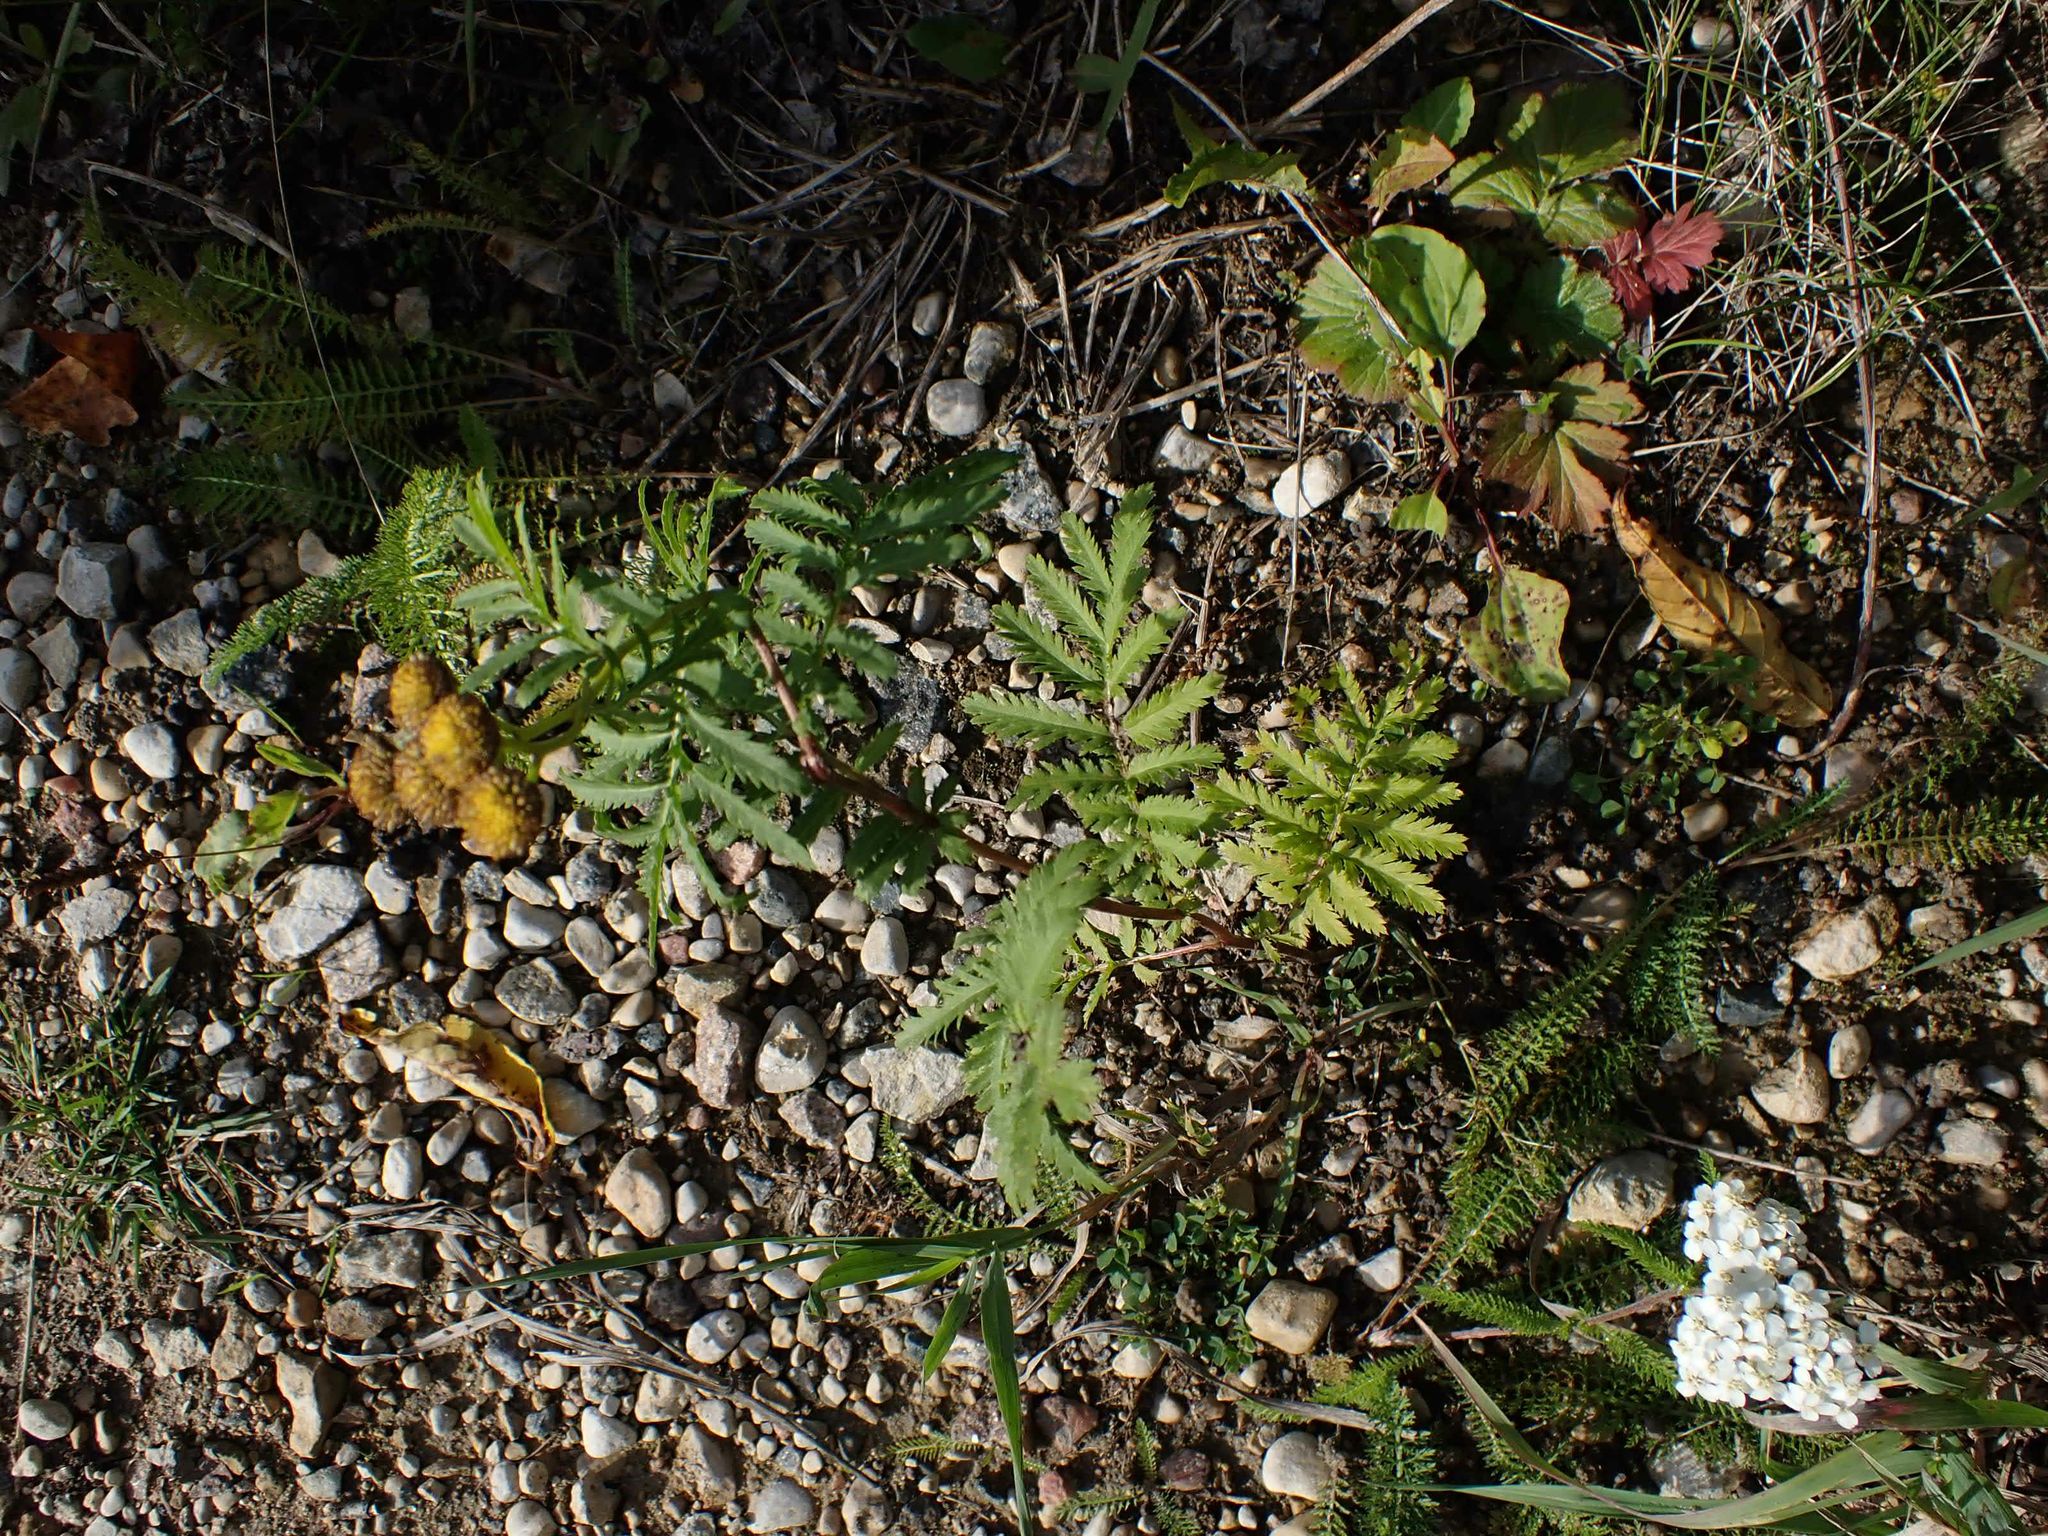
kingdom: Plantae
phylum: Tracheophyta
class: Magnoliopsida
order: Asterales
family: Asteraceae
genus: Tanacetum
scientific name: Tanacetum vulgare
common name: Common tansy
